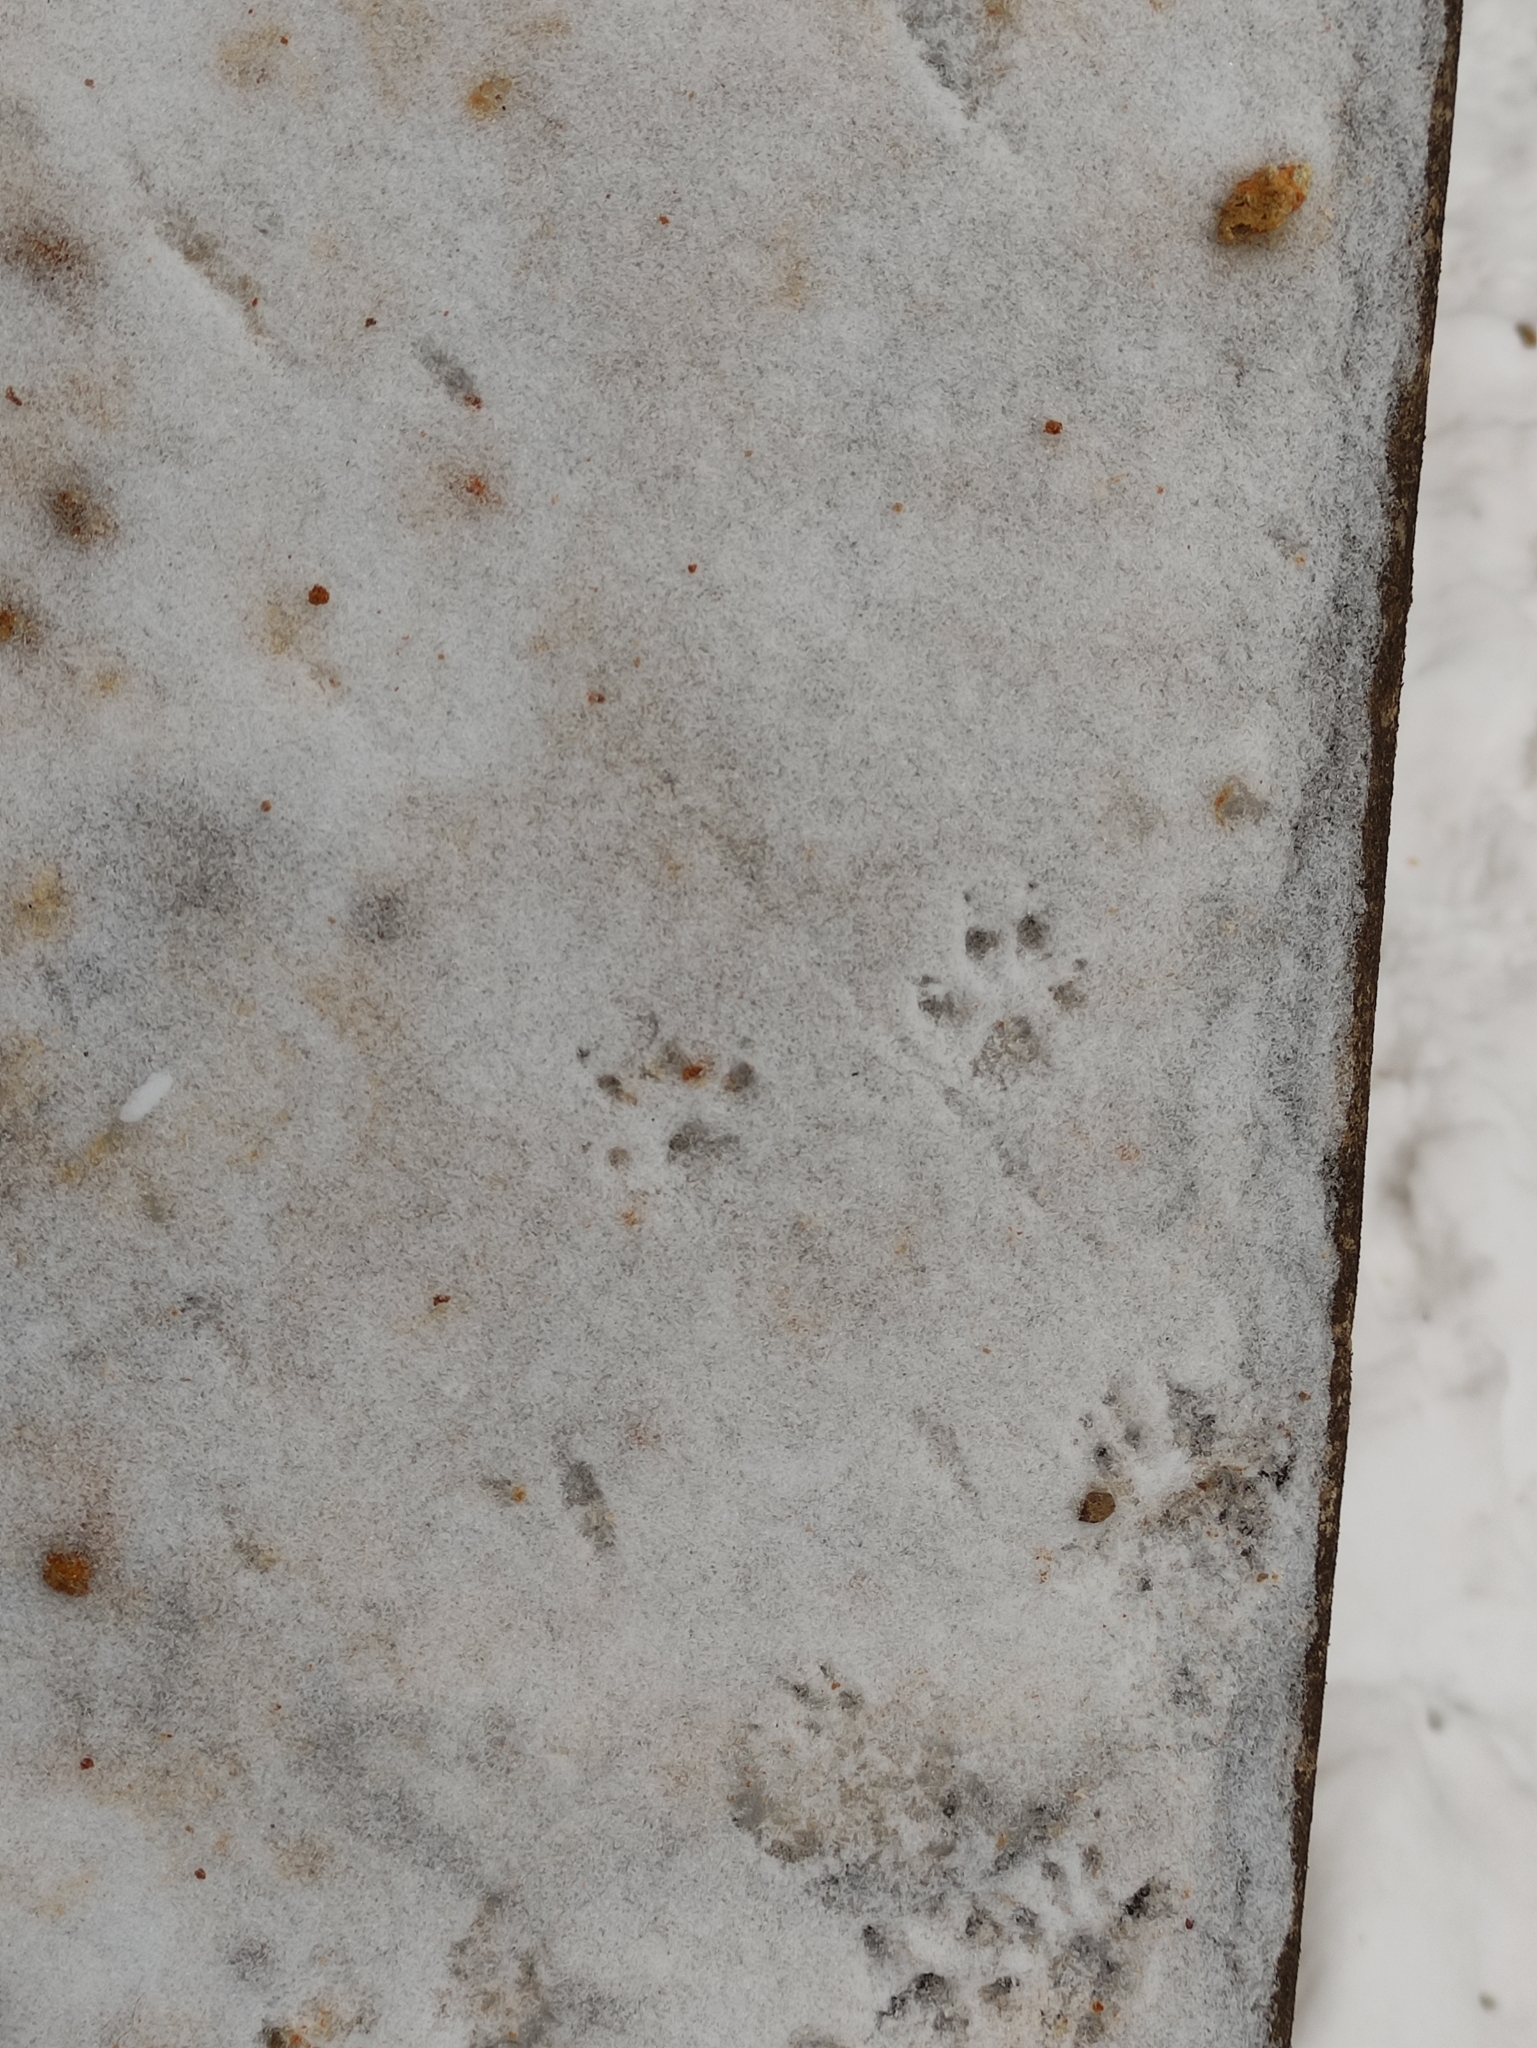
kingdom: Animalia
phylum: Chordata
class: Mammalia
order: Rodentia
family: Sciuridae
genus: Sciurus
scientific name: Sciurus vulgaris
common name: Eurasian red squirrel
